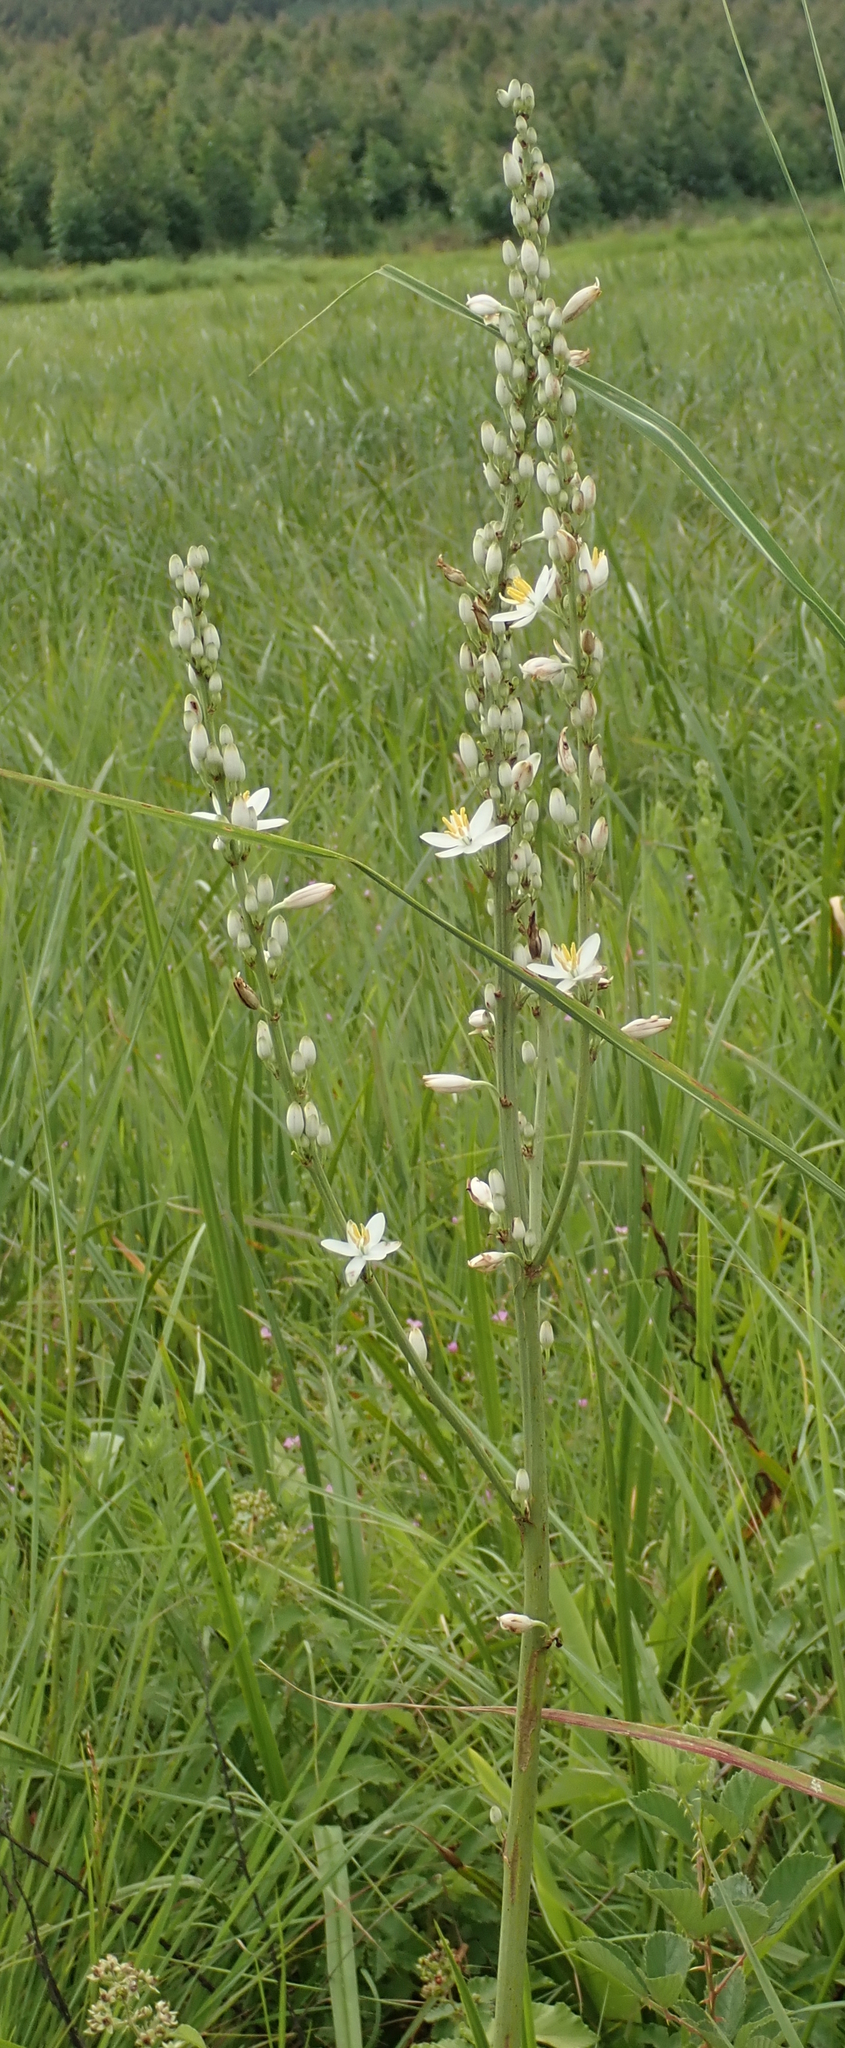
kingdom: Plantae
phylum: Tracheophyta
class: Liliopsida
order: Asparagales
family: Asparagaceae
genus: Chlorophytum
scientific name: Chlorophytum krookianum
